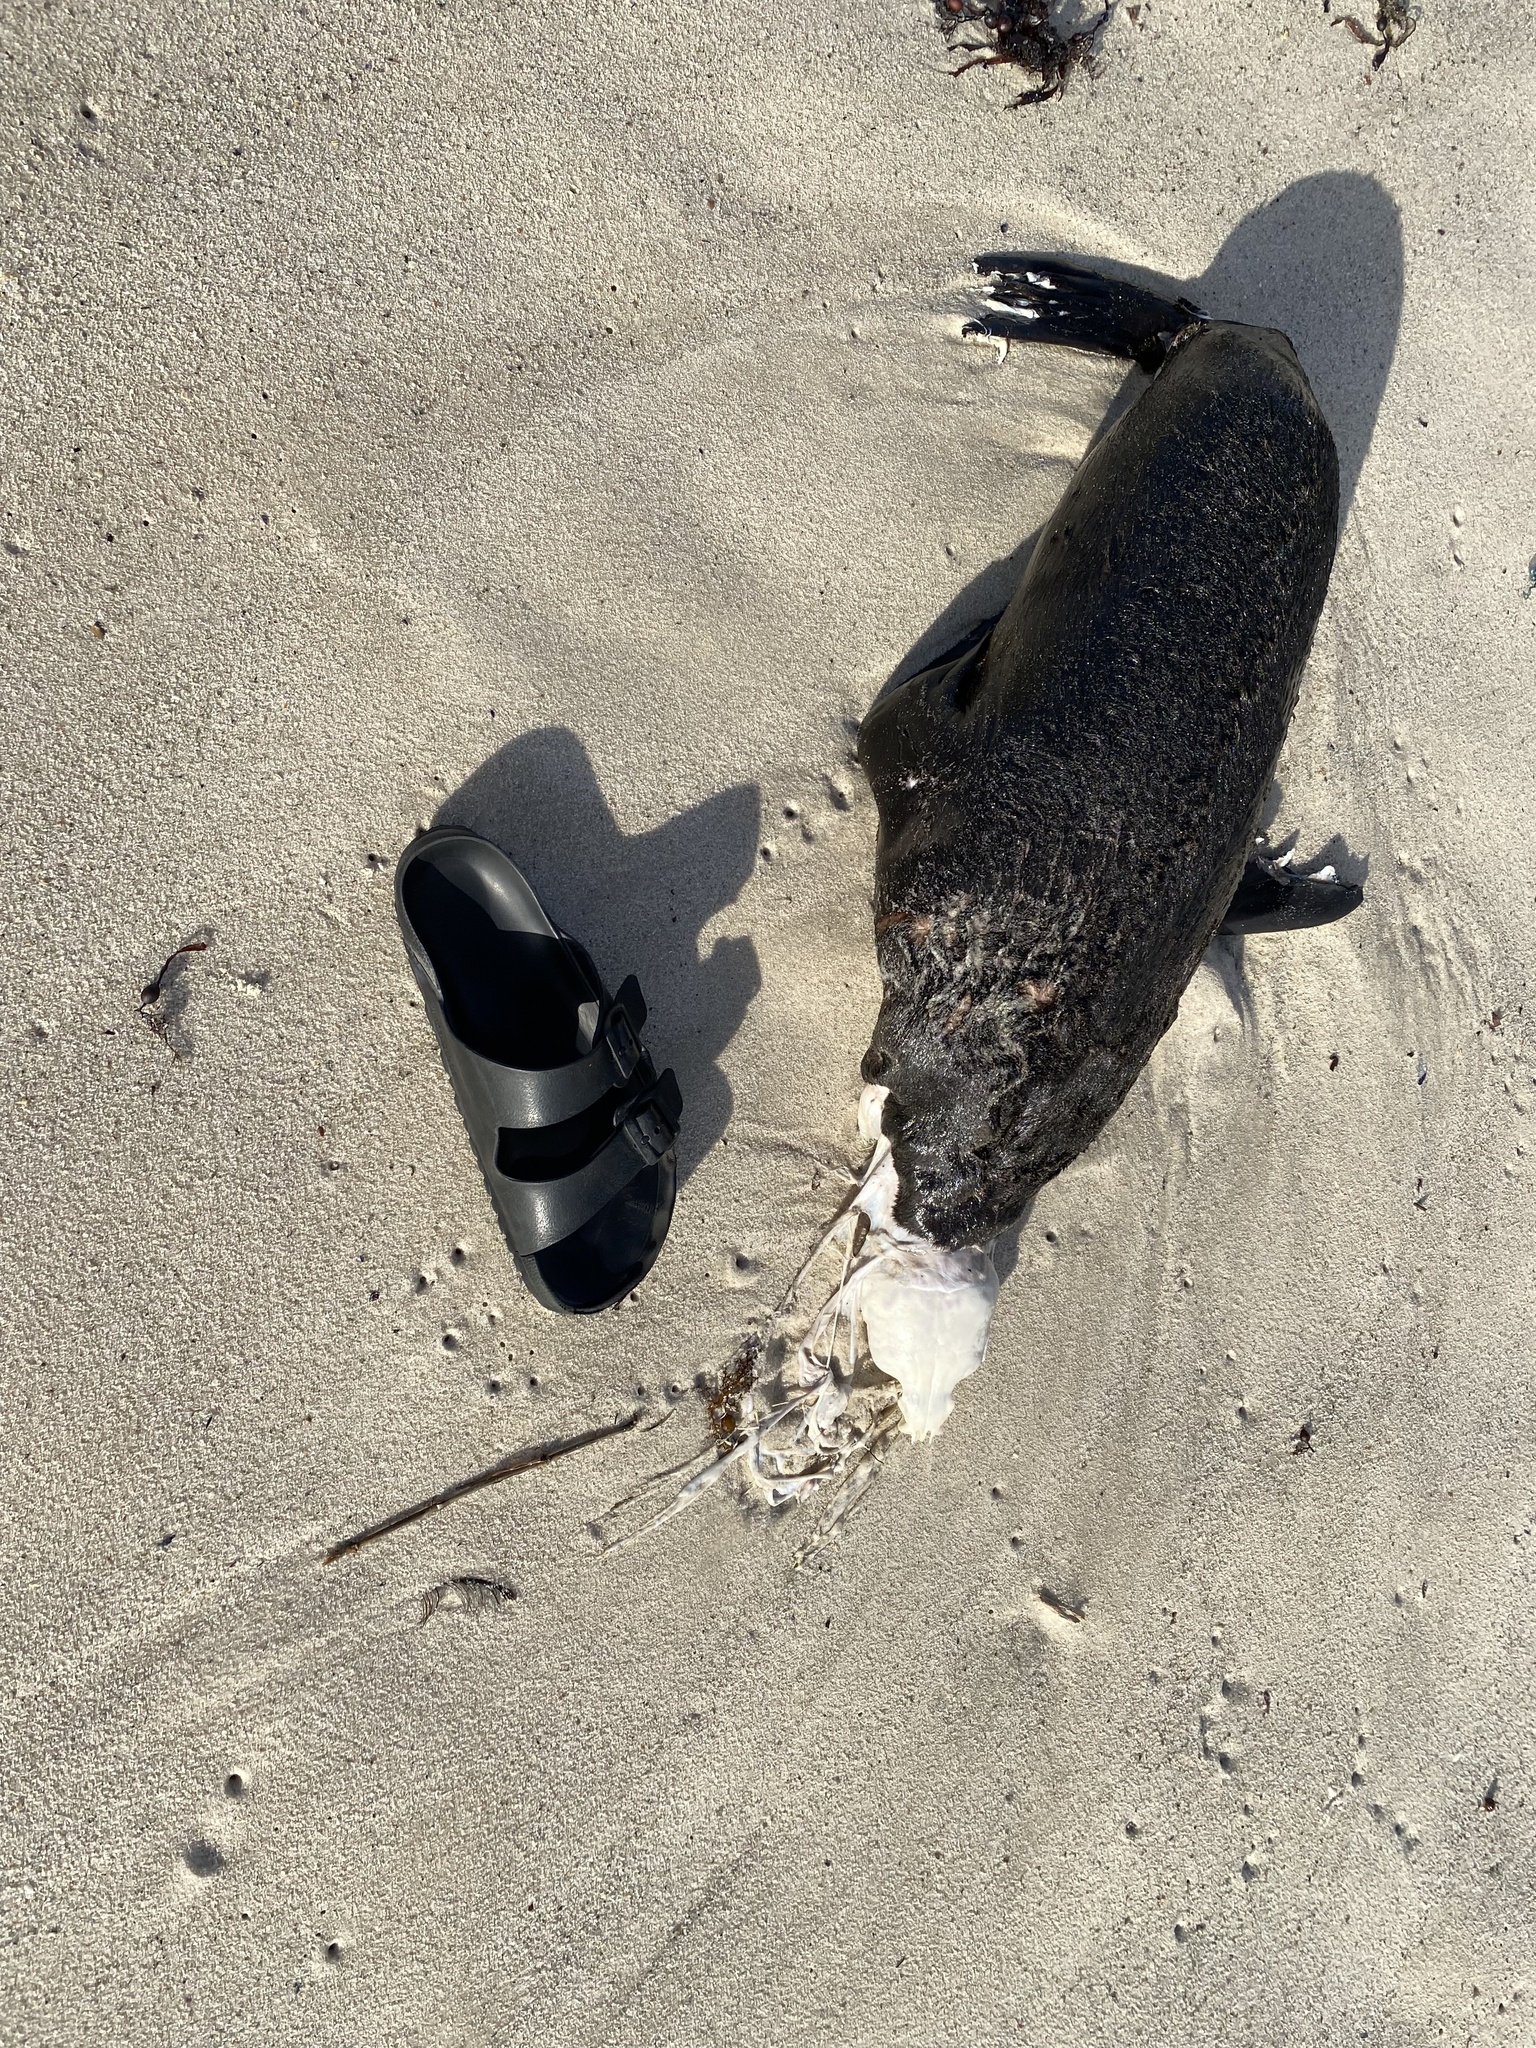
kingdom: Animalia
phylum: Chordata
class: Mammalia
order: Carnivora
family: Otariidae
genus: Arctocephalus
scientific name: Arctocephalus pusillus
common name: Brown fur seal
